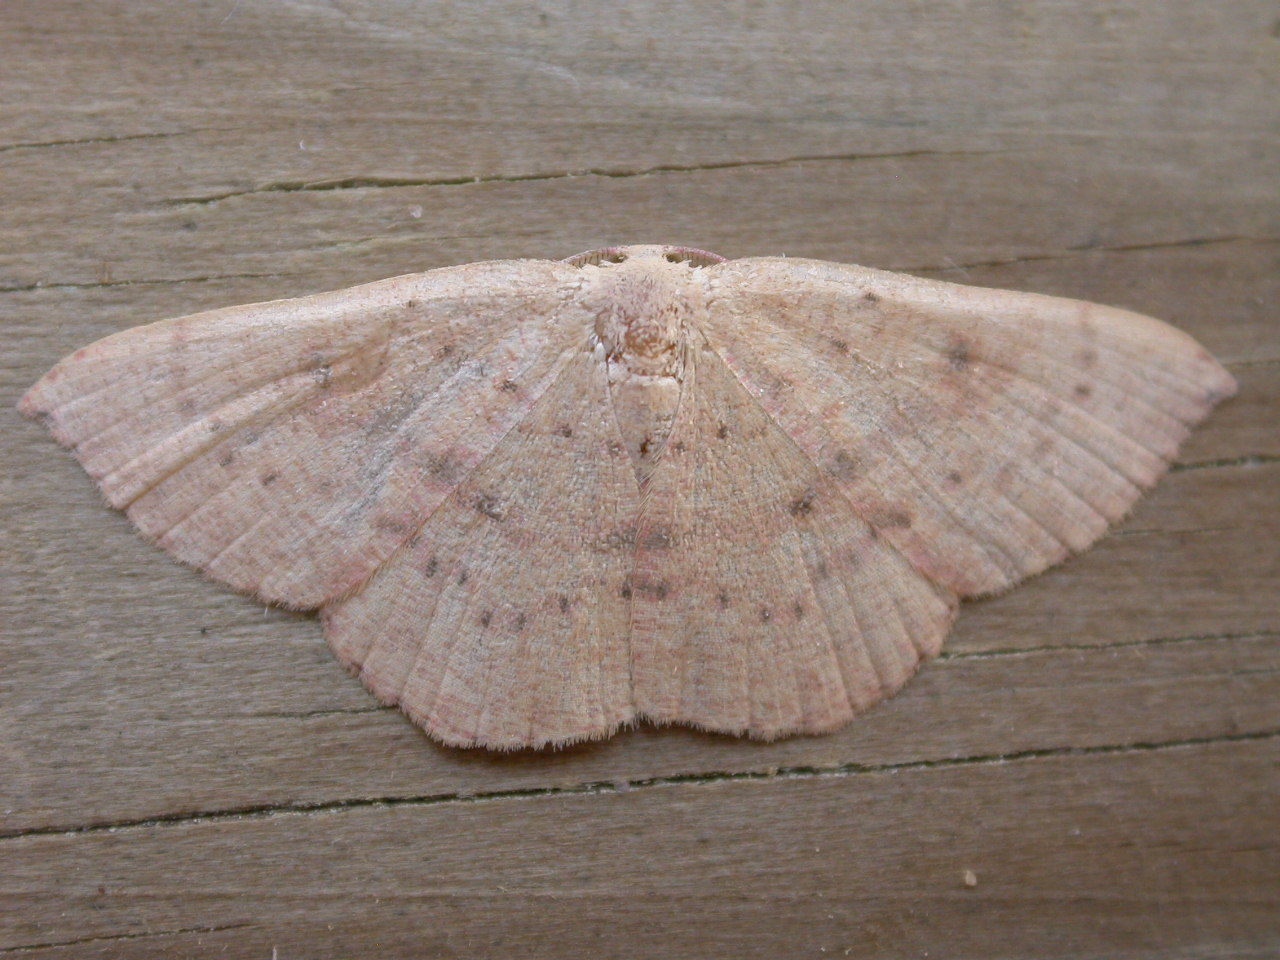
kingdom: Animalia
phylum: Arthropoda
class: Insecta
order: Lepidoptera
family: Geometridae
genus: Cyclophora
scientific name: Cyclophora puppillaria
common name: Blair's mocha
